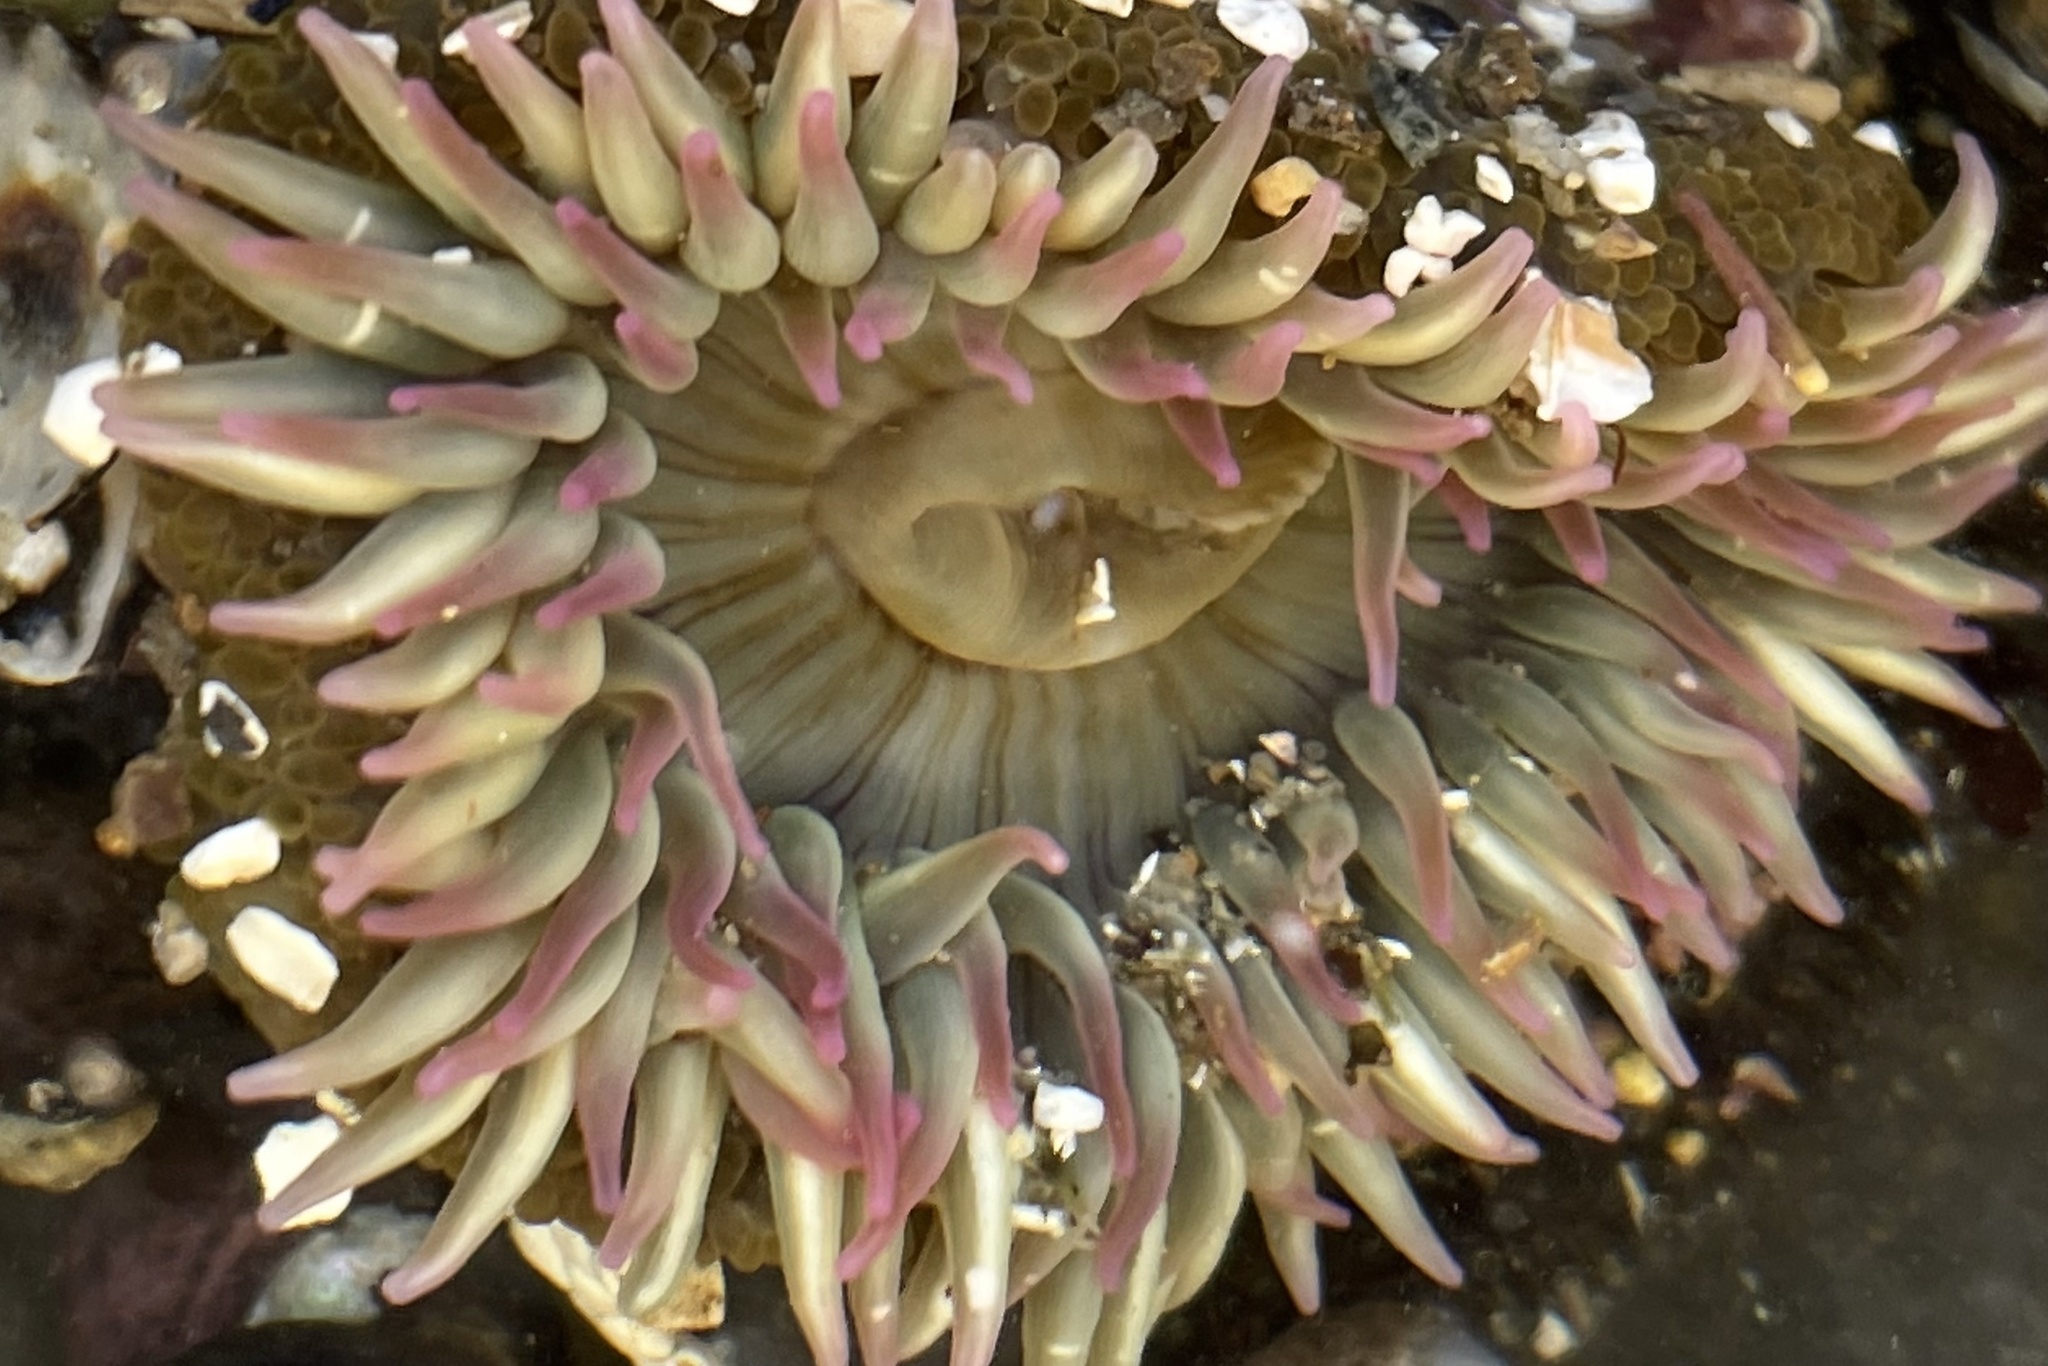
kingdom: Animalia
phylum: Cnidaria
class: Anthozoa
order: Actiniaria
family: Actiniidae
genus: Anthopleura
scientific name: Anthopleura elegantissima
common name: Clonal anemone
